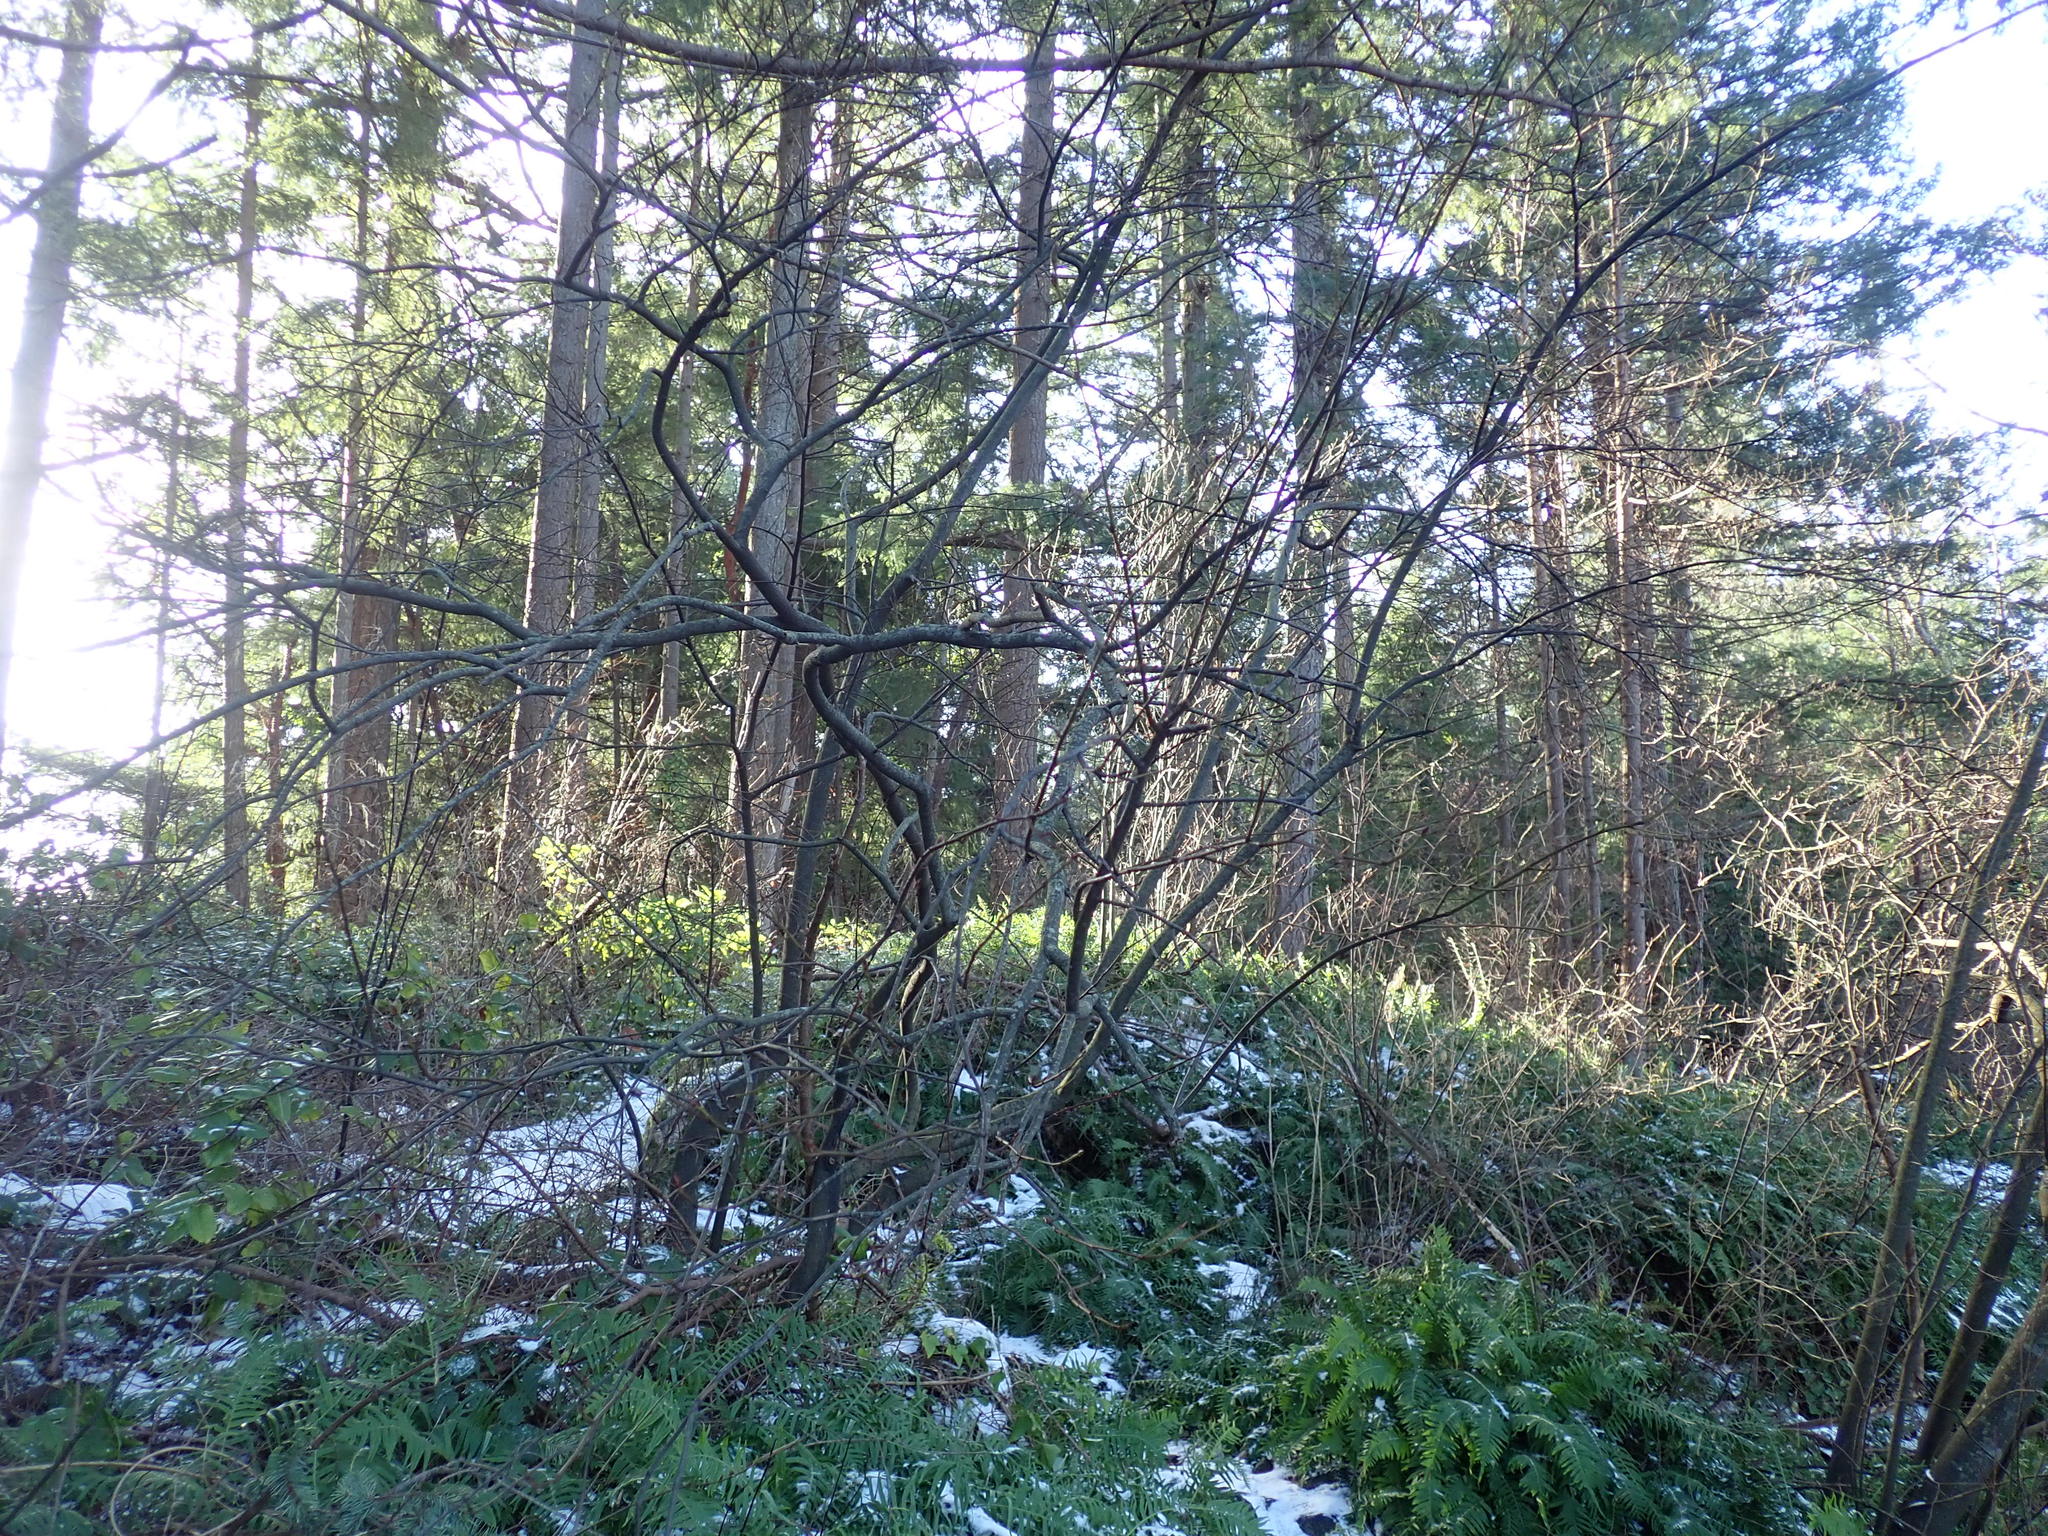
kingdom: Plantae
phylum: Tracheophyta
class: Magnoliopsida
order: Sapindales
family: Sapindaceae
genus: Acer
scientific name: Acer circinatum
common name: Vine maple
